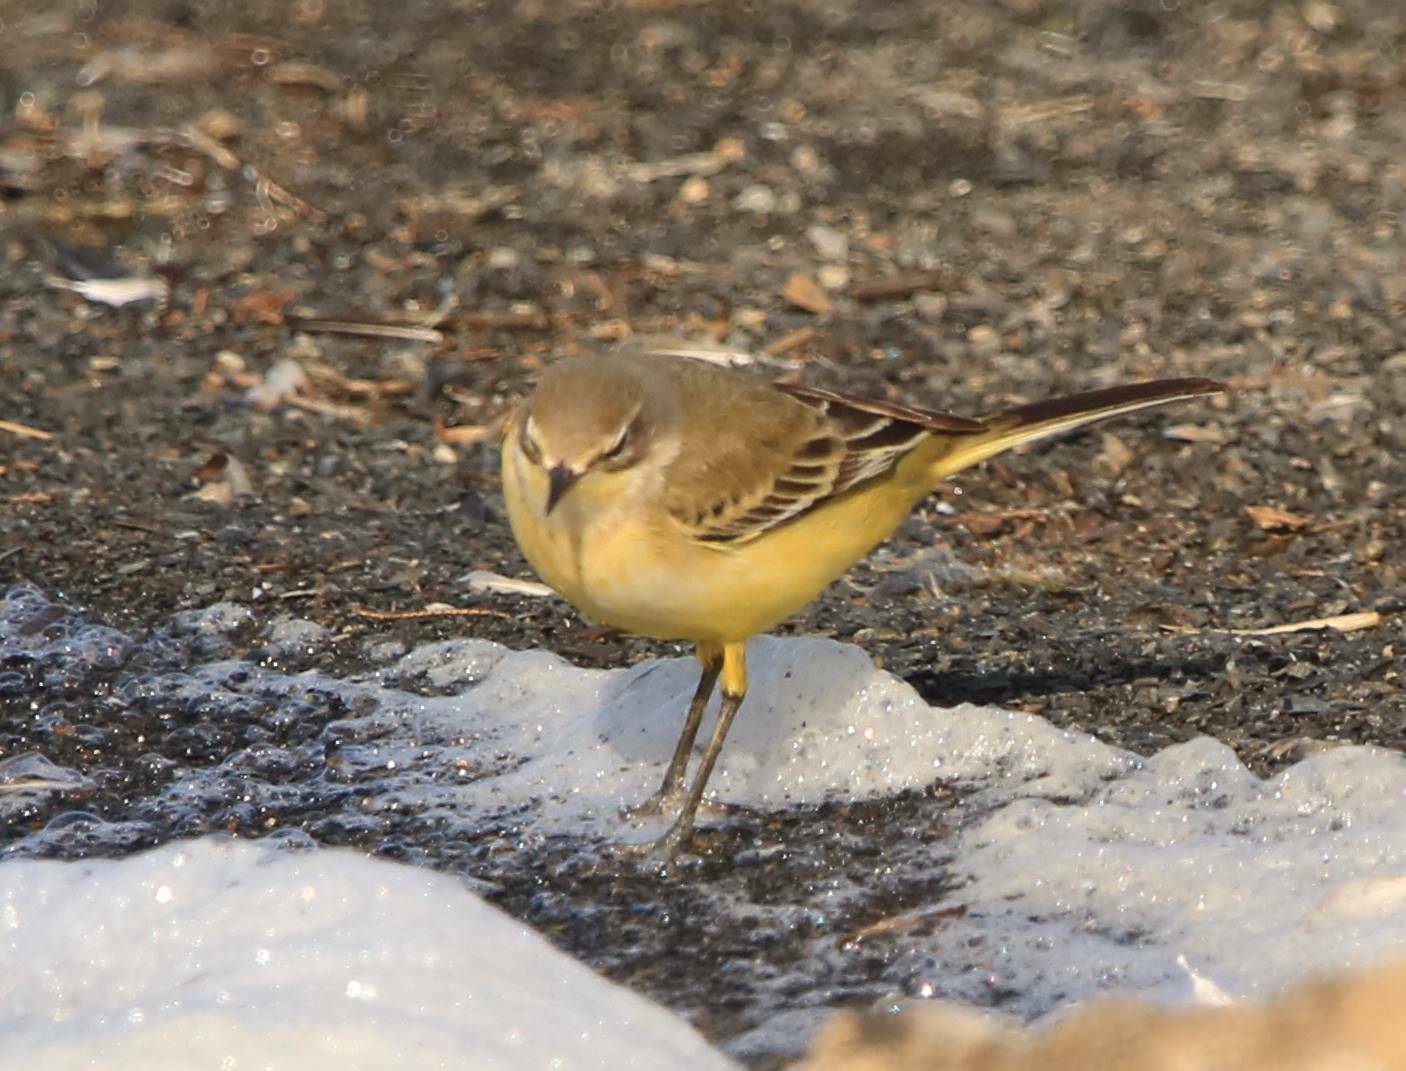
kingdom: Animalia
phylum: Chordata
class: Aves
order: Passeriformes
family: Motacillidae
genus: Motacilla
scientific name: Motacilla flava
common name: Western yellow wagtail
